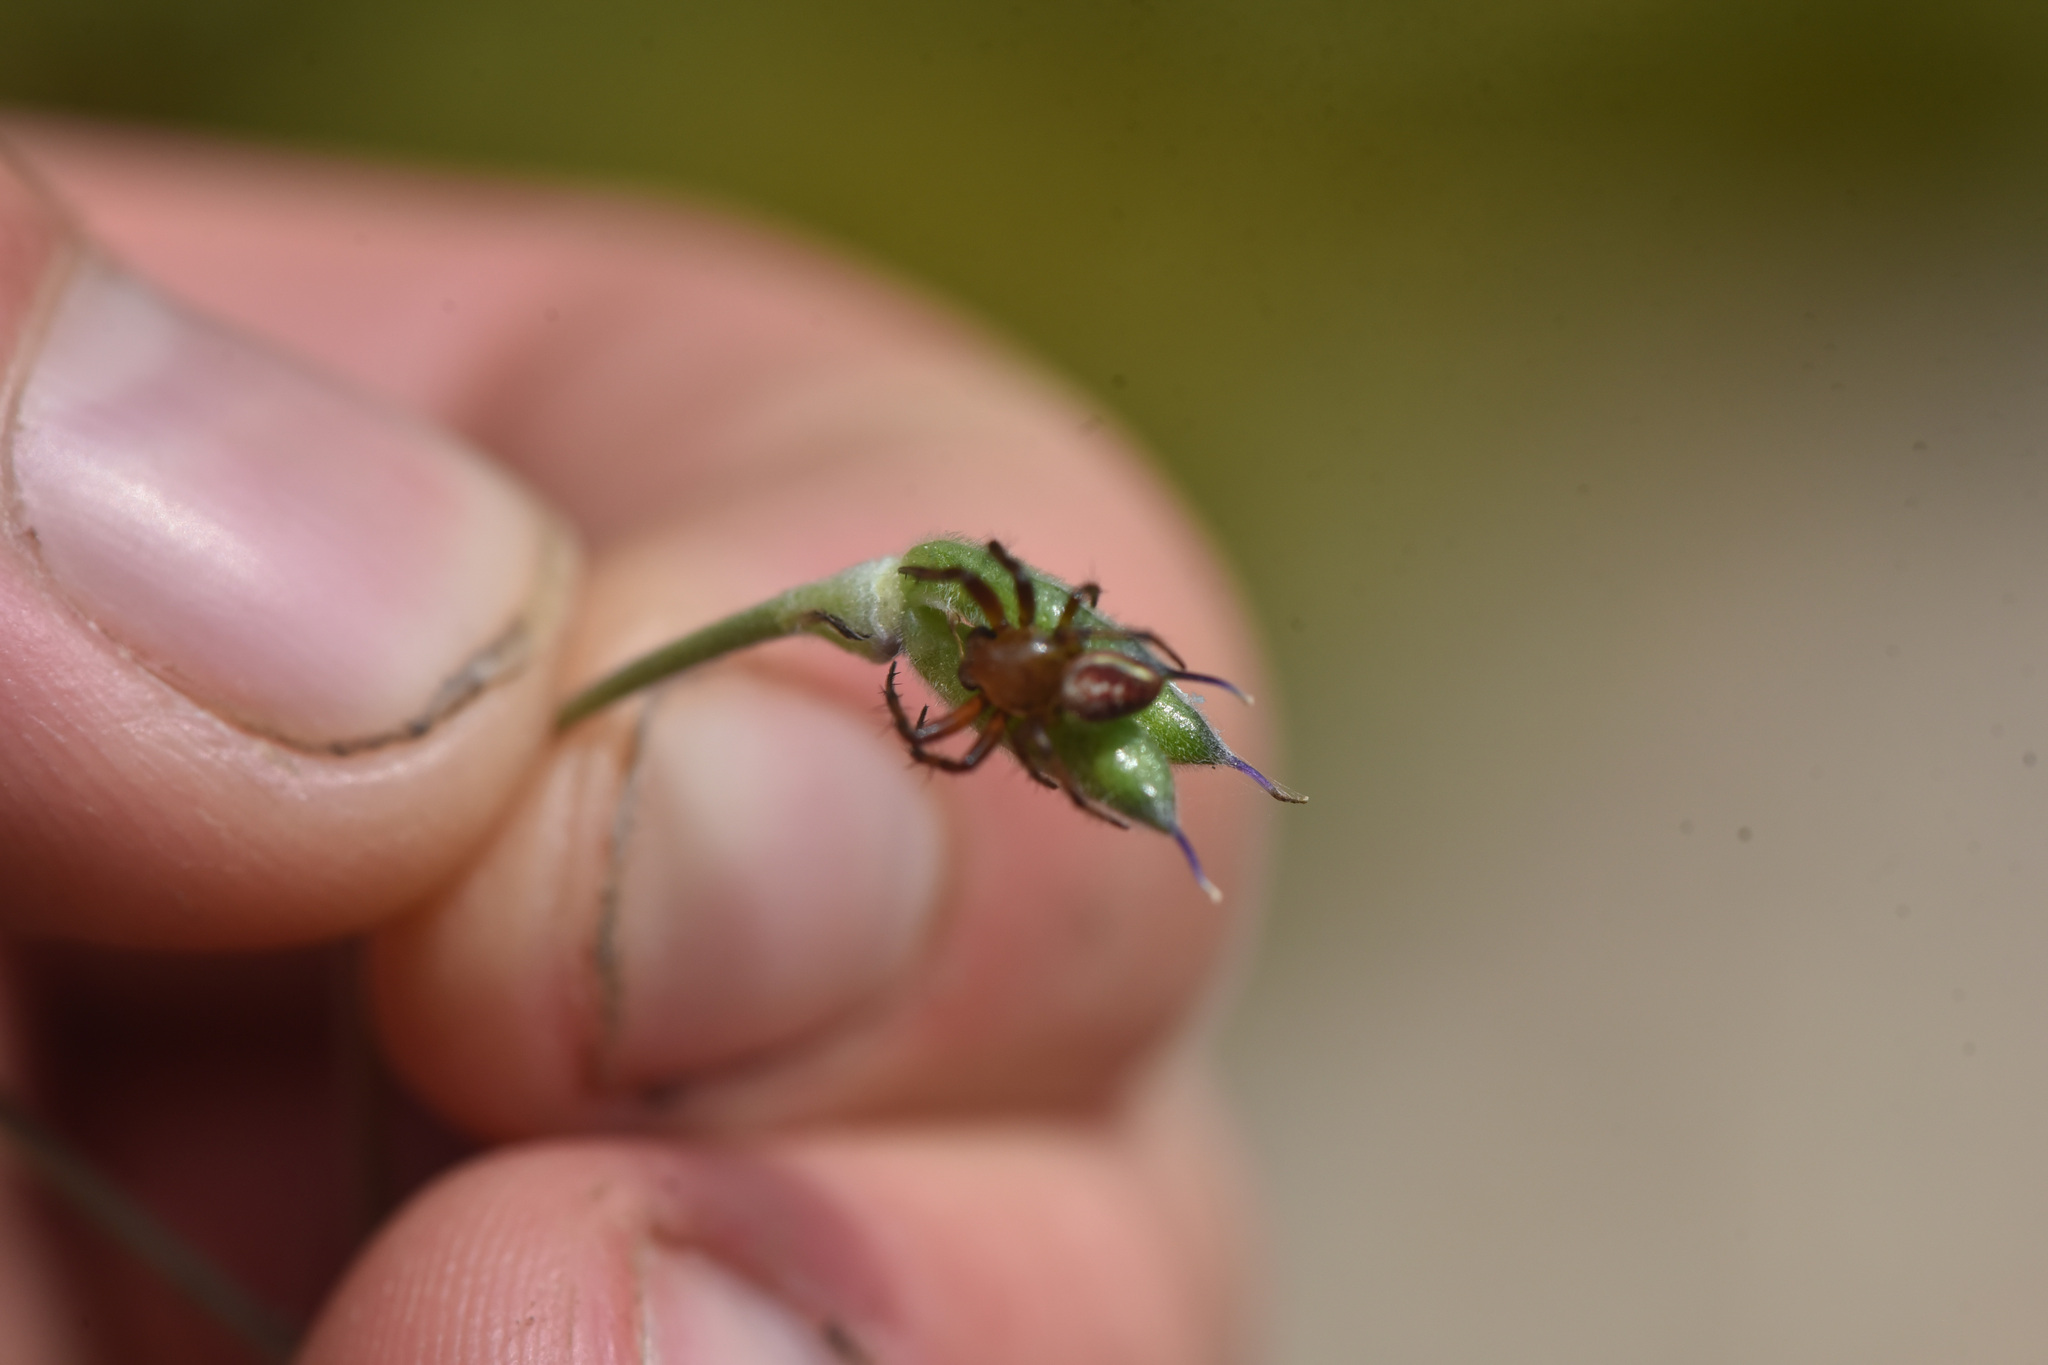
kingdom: Animalia
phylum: Arthropoda
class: Arachnida
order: Araneae
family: Araneidae
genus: Araniella
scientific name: Araniella displicata
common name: Sixspotted orb weaver
